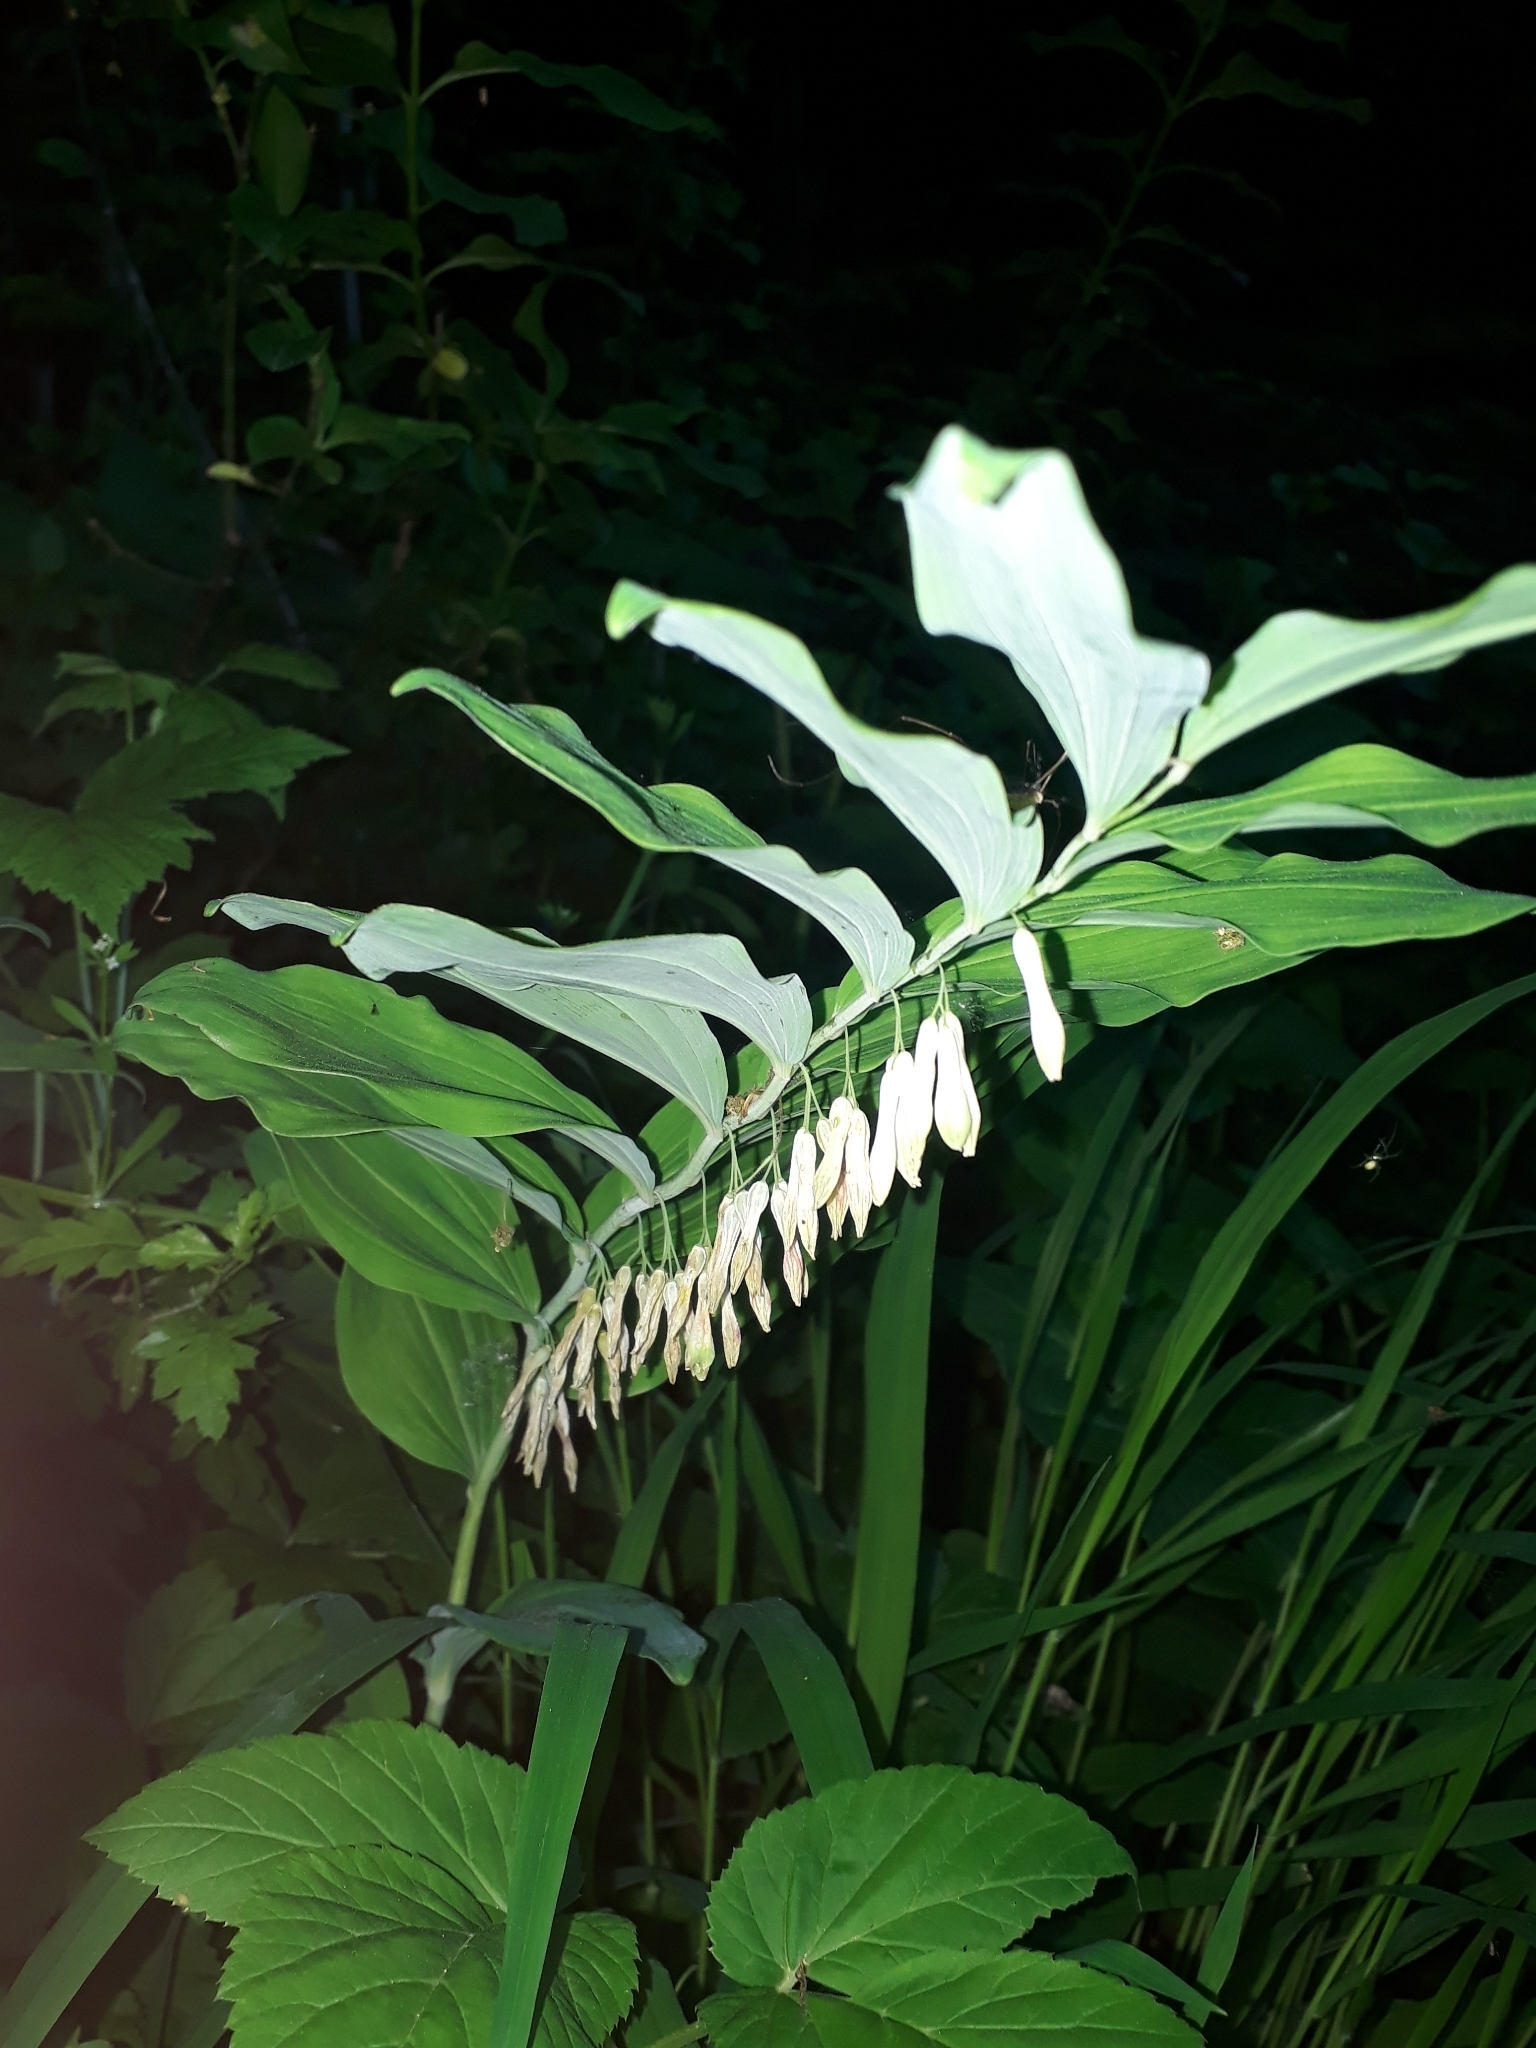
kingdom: Plantae
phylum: Tracheophyta
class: Liliopsida
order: Asparagales
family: Asparagaceae
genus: Polygonatum
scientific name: Polygonatum multiflorum
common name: Solomon's-seal
